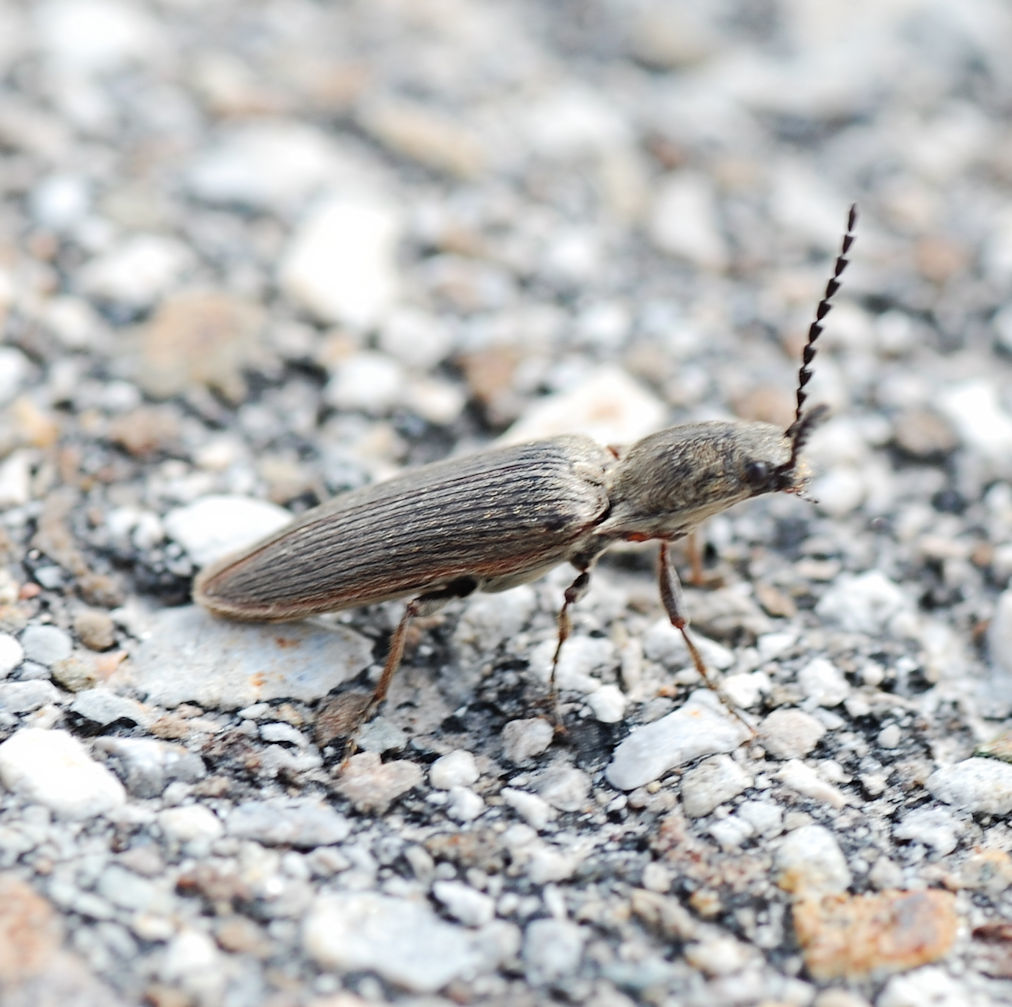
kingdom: Animalia
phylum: Arthropoda
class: Insecta
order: Coleoptera
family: Elateridae
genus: Sylvanelater
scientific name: Sylvanelater cylindriformis
